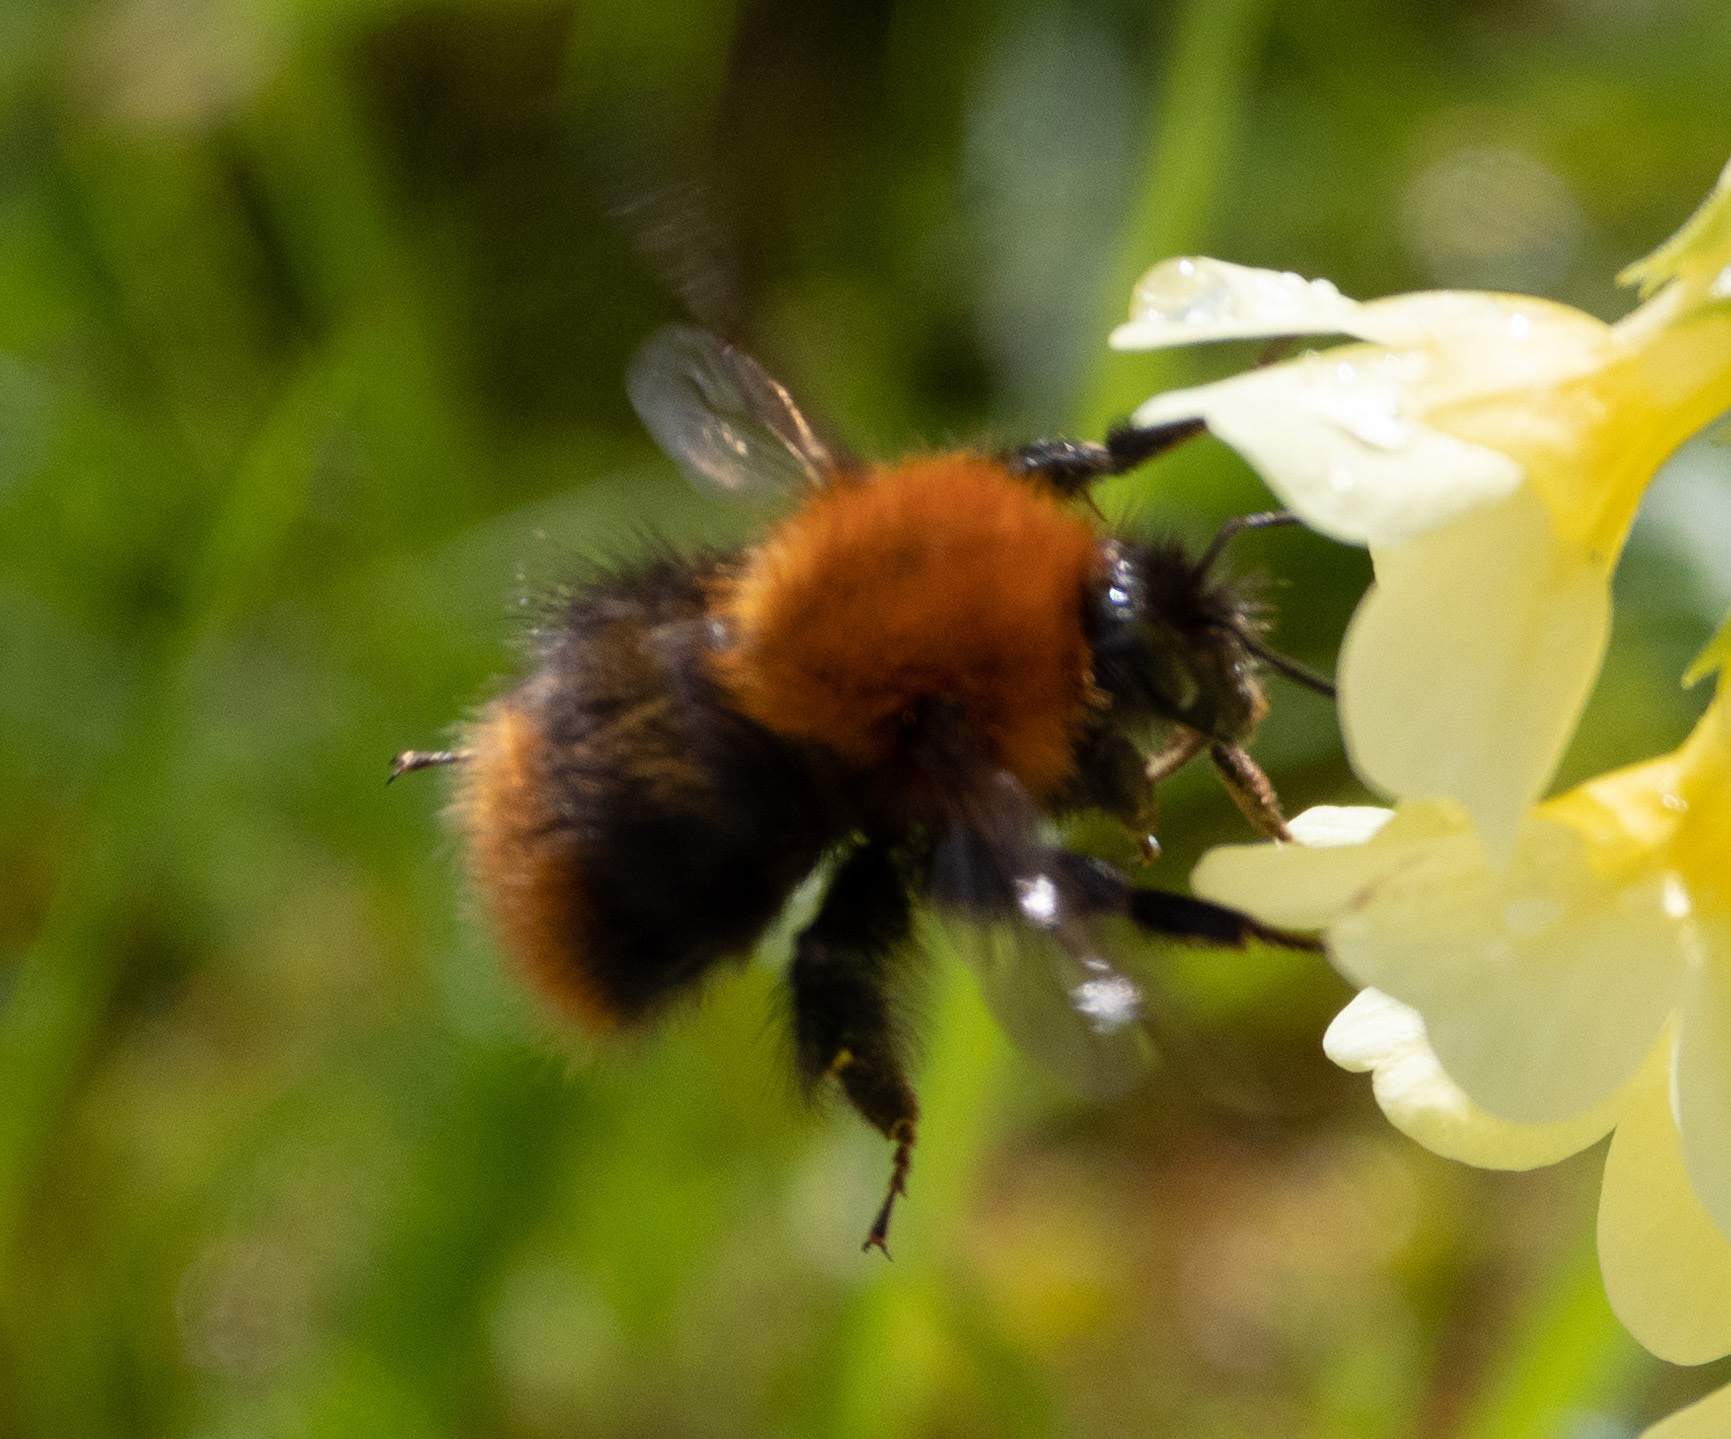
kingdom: Animalia
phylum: Arthropoda
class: Insecta
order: Hymenoptera
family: Apidae
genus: Bombus
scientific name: Bombus pascuorum
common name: Common carder bee
